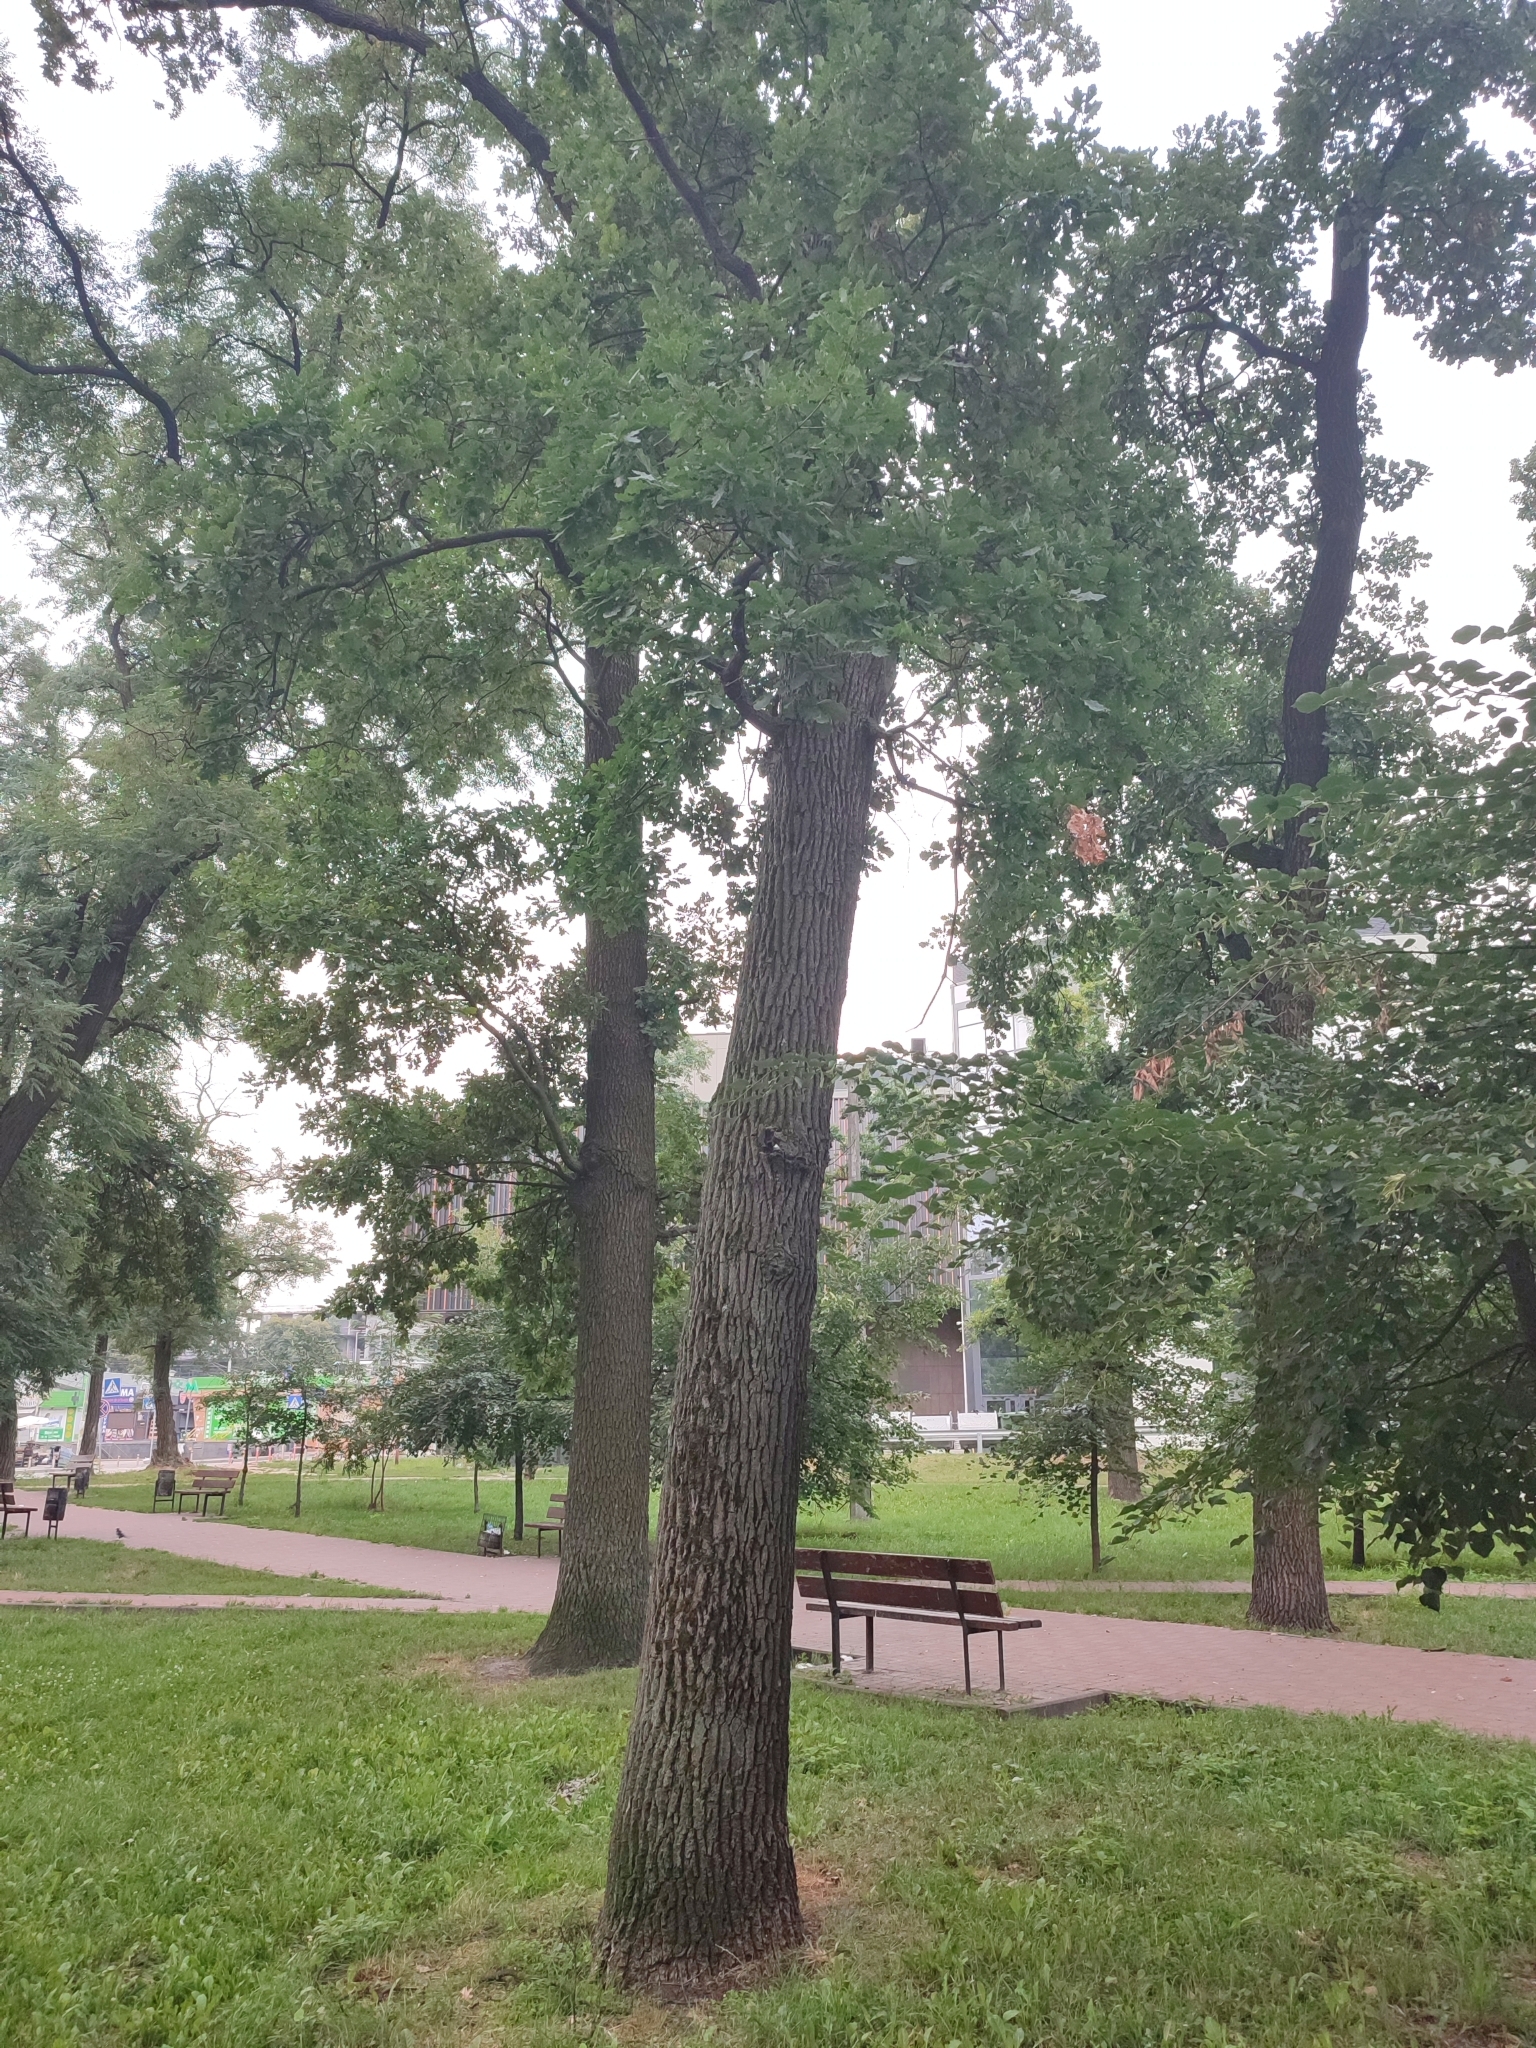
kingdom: Plantae
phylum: Tracheophyta
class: Magnoliopsida
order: Fagales
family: Fagaceae
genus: Quercus
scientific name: Quercus robur
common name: Pedunculate oak
